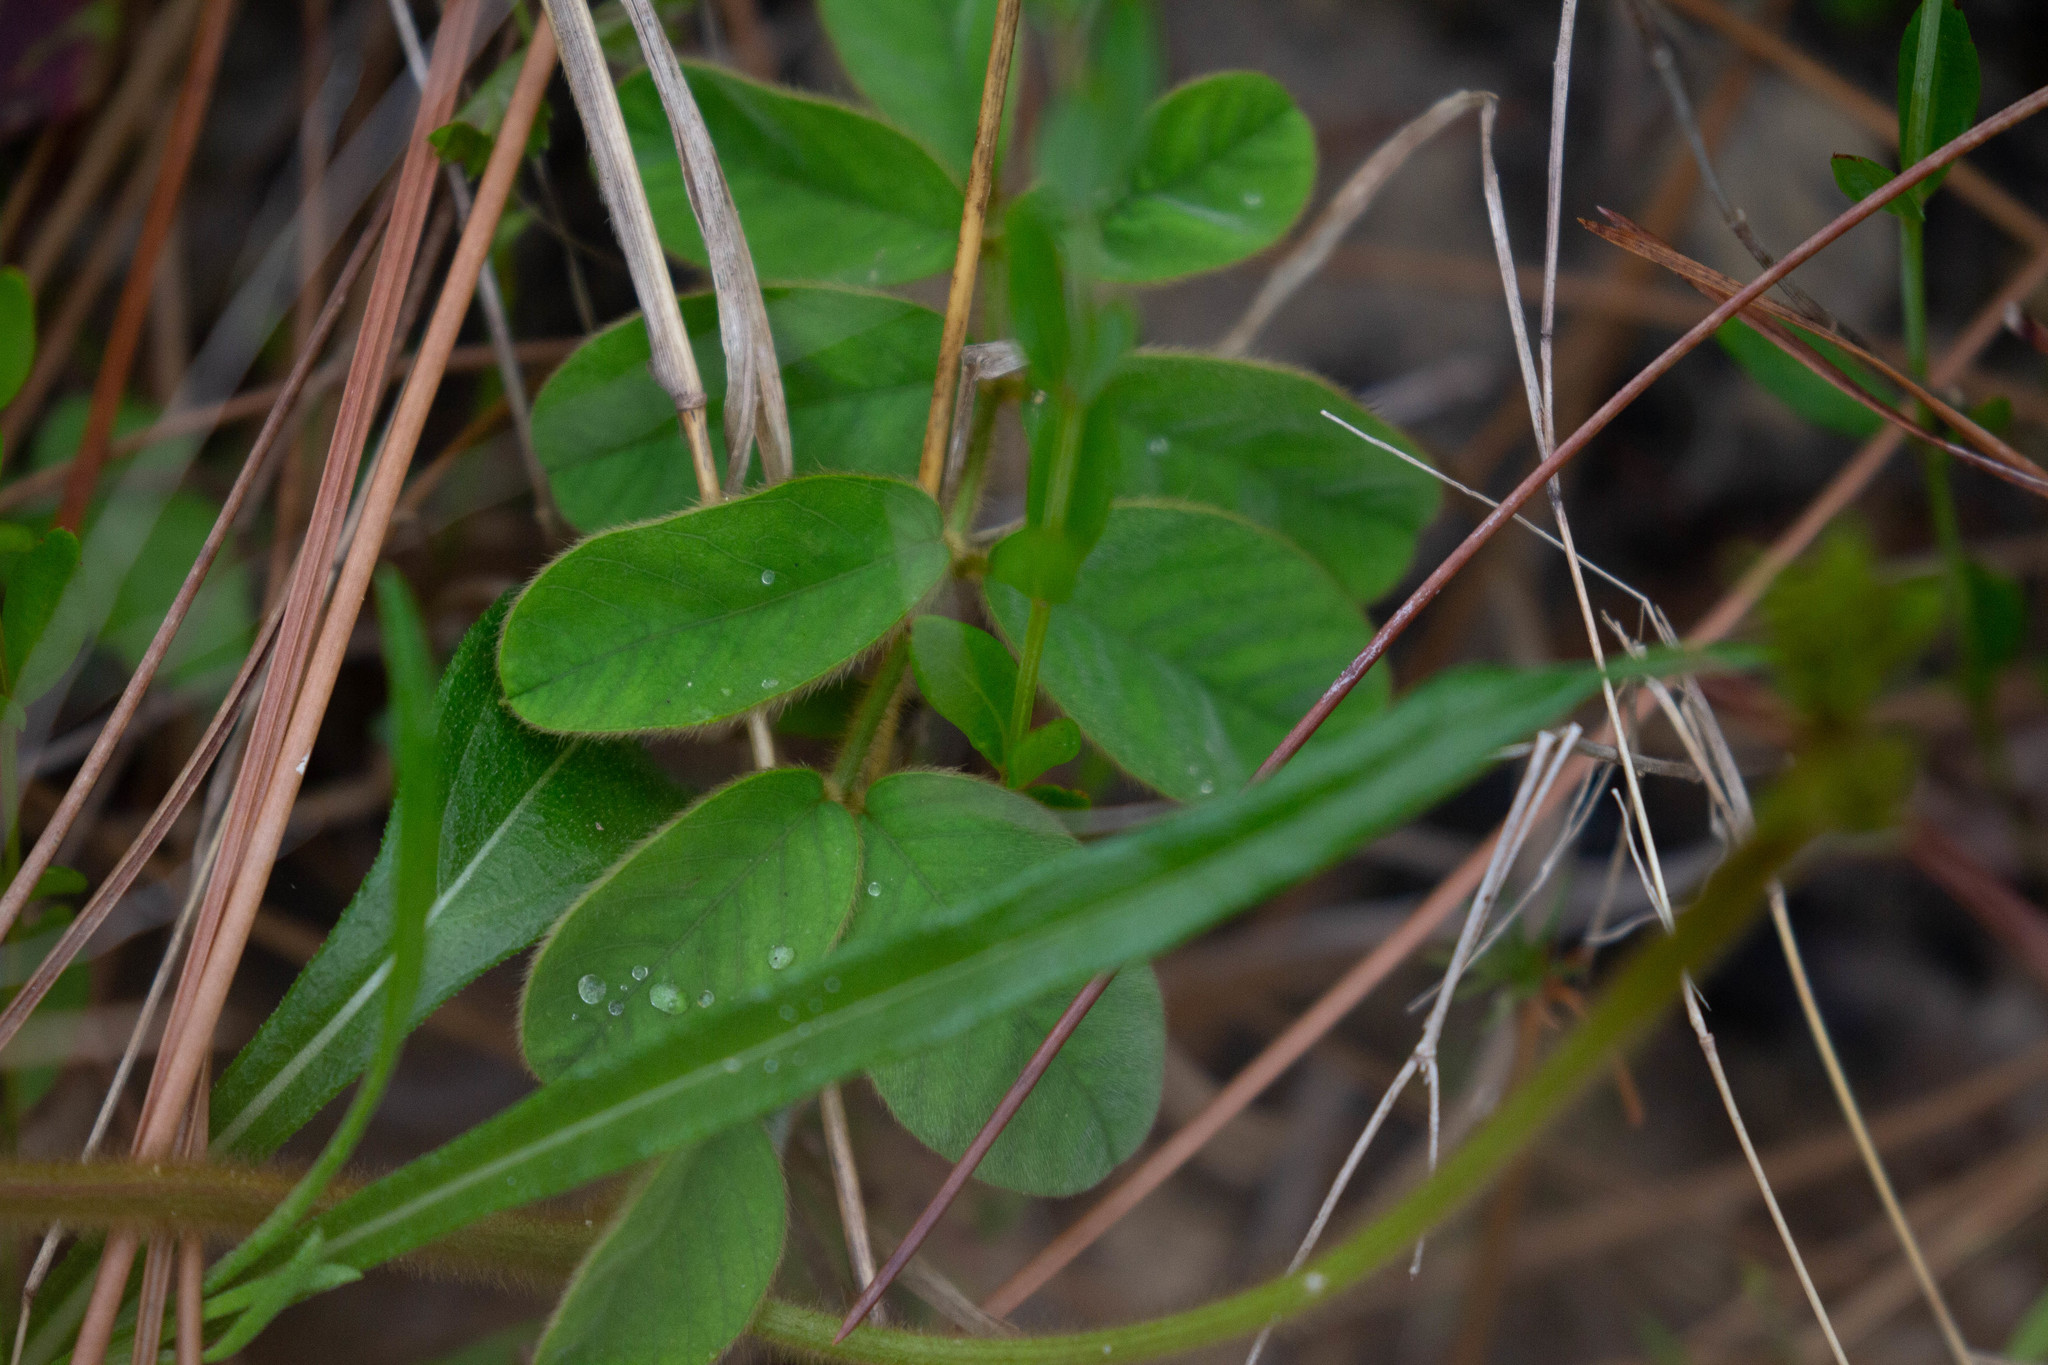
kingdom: Plantae
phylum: Tracheophyta
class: Magnoliopsida
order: Fabales
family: Fabaceae
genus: Crotalaria
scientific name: Crotalaria rotundifolia
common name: Prostrate rattlebox
